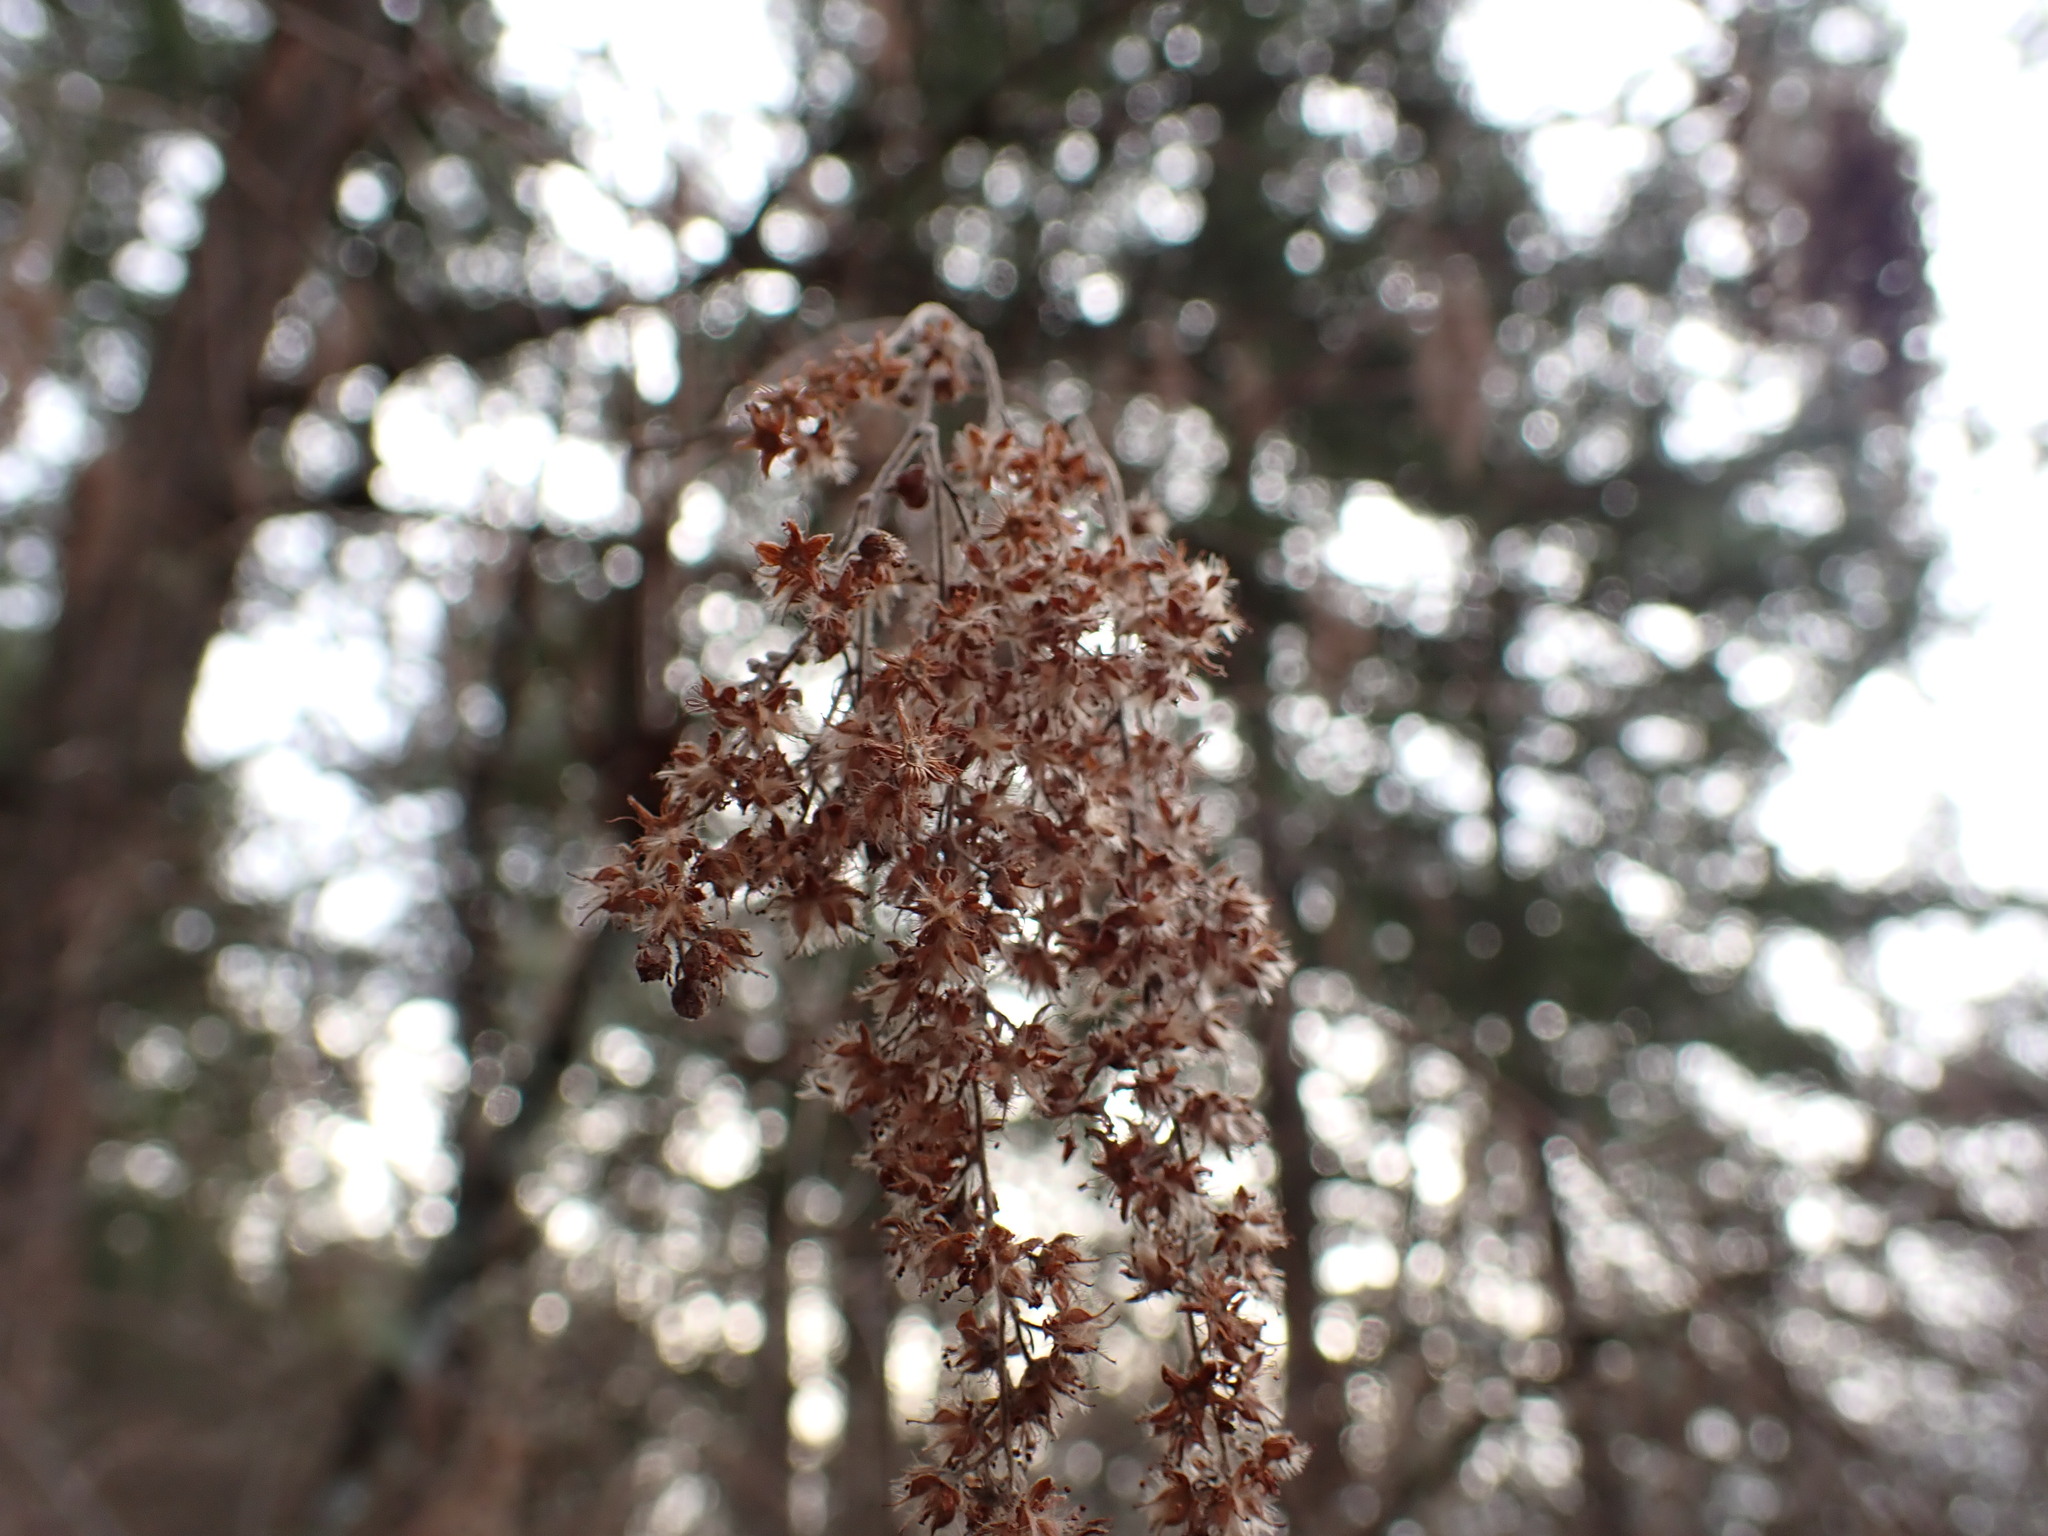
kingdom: Plantae
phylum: Tracheophyta
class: Magnoliopsida
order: Rosales
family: Rosaceae
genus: Holodiscus
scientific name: Holodiscus discolor
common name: Oceanspray
